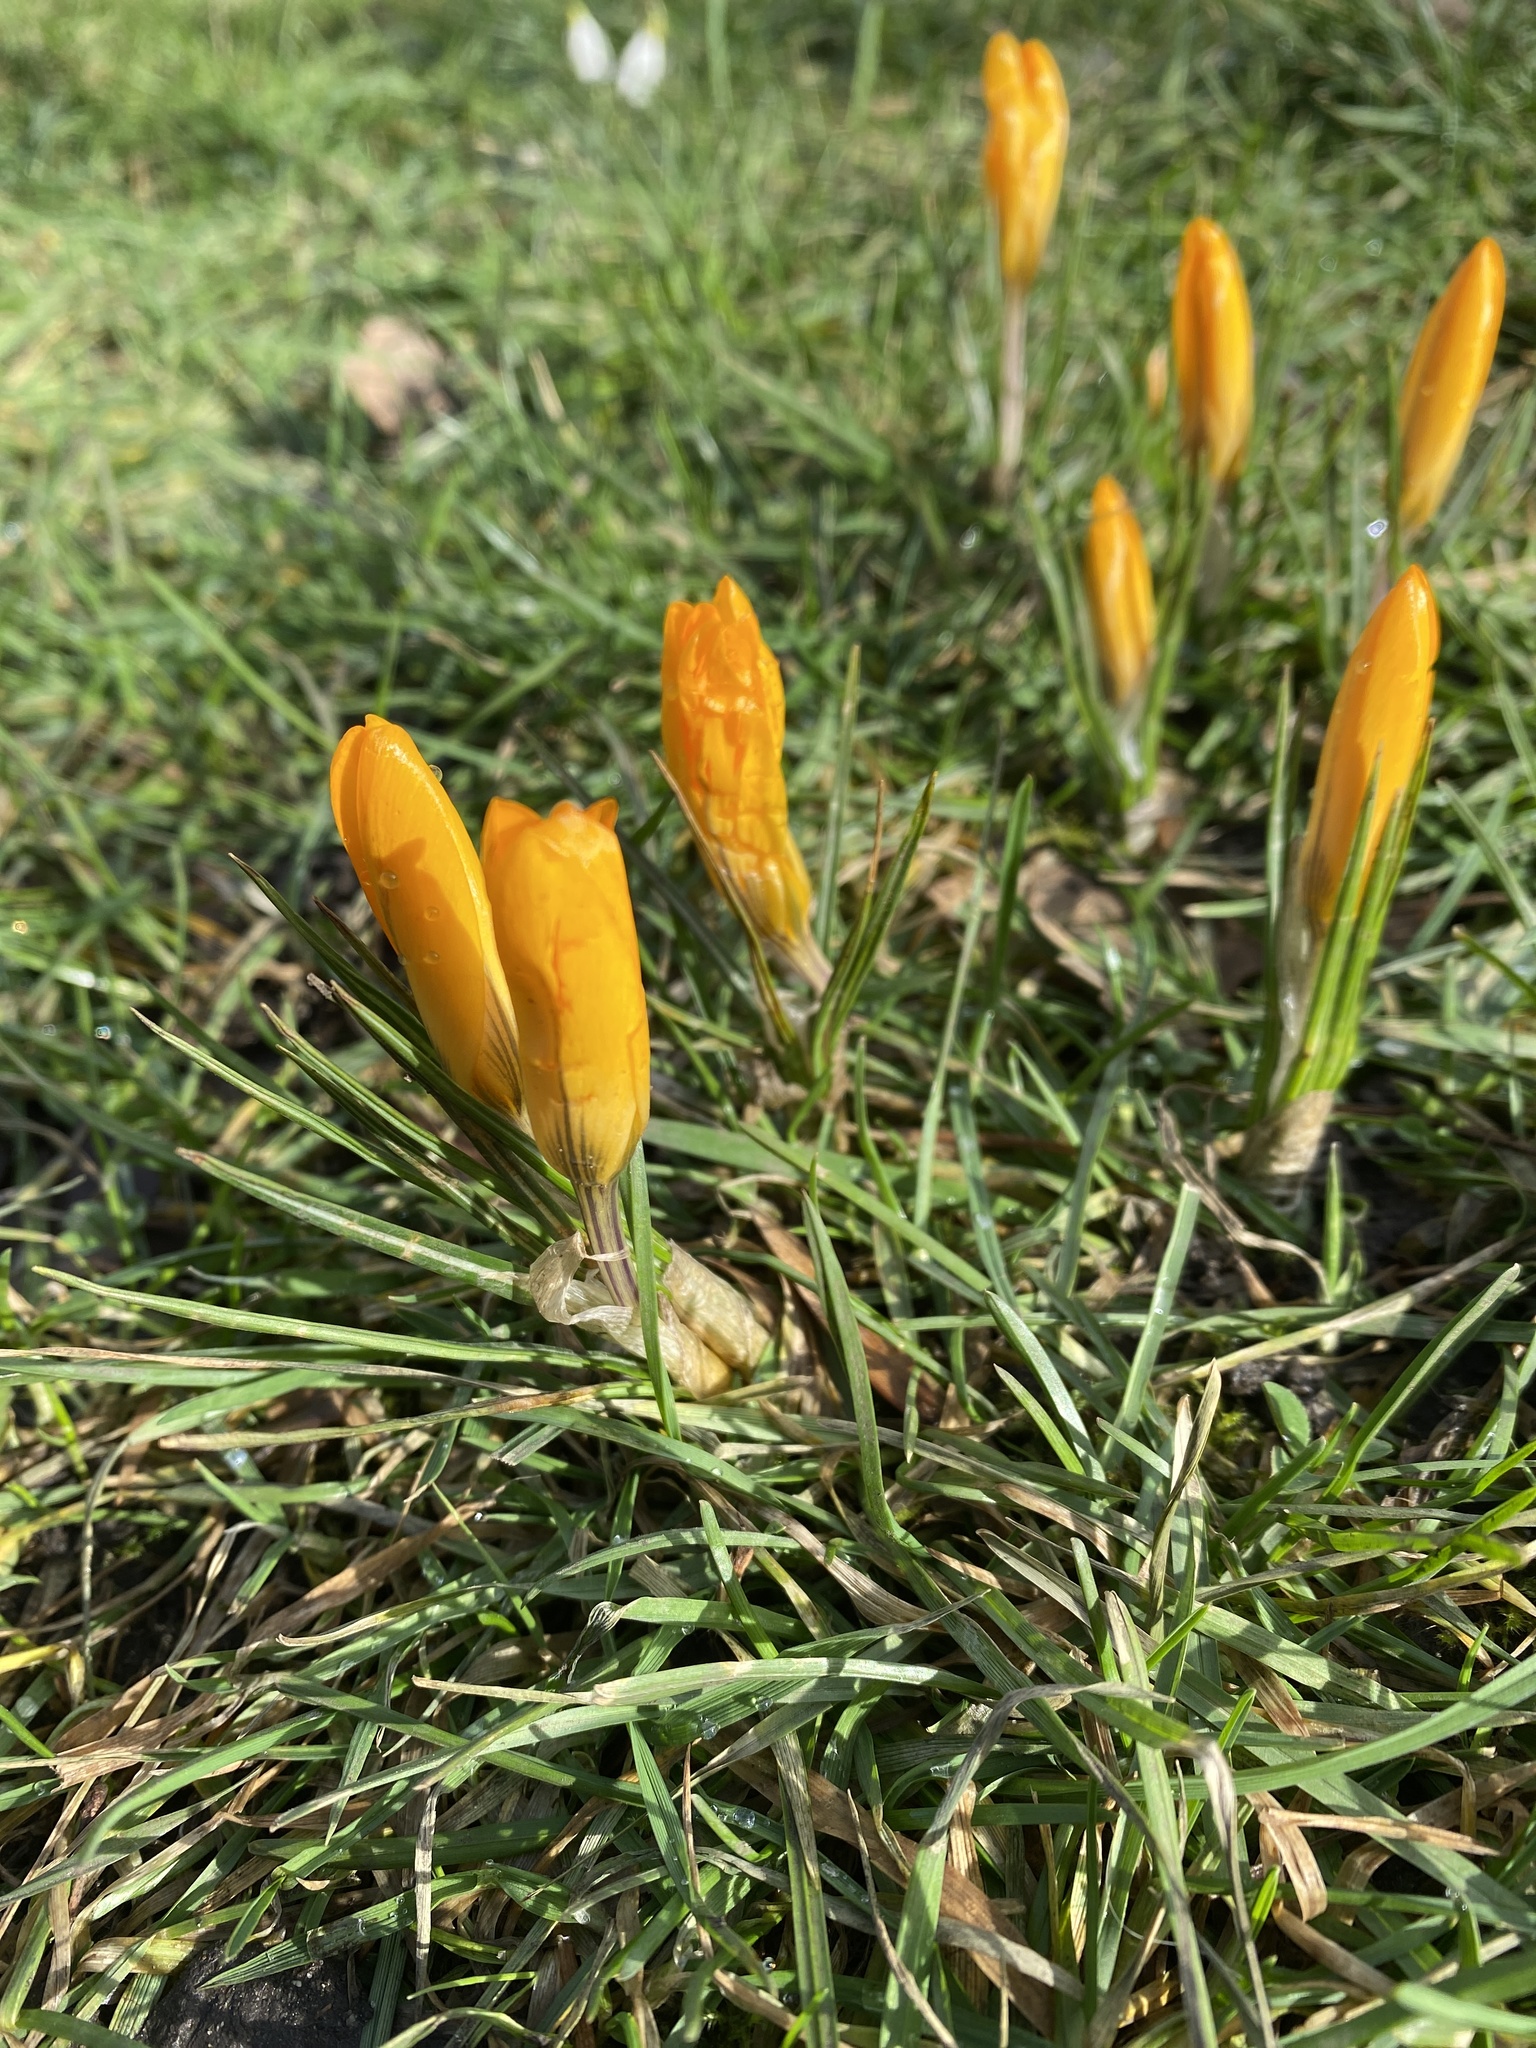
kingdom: Plantae
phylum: Tracheophyta
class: Liliopsida
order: Asparagales
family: Iridaceae
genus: Crocus
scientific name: Crocus luteus
